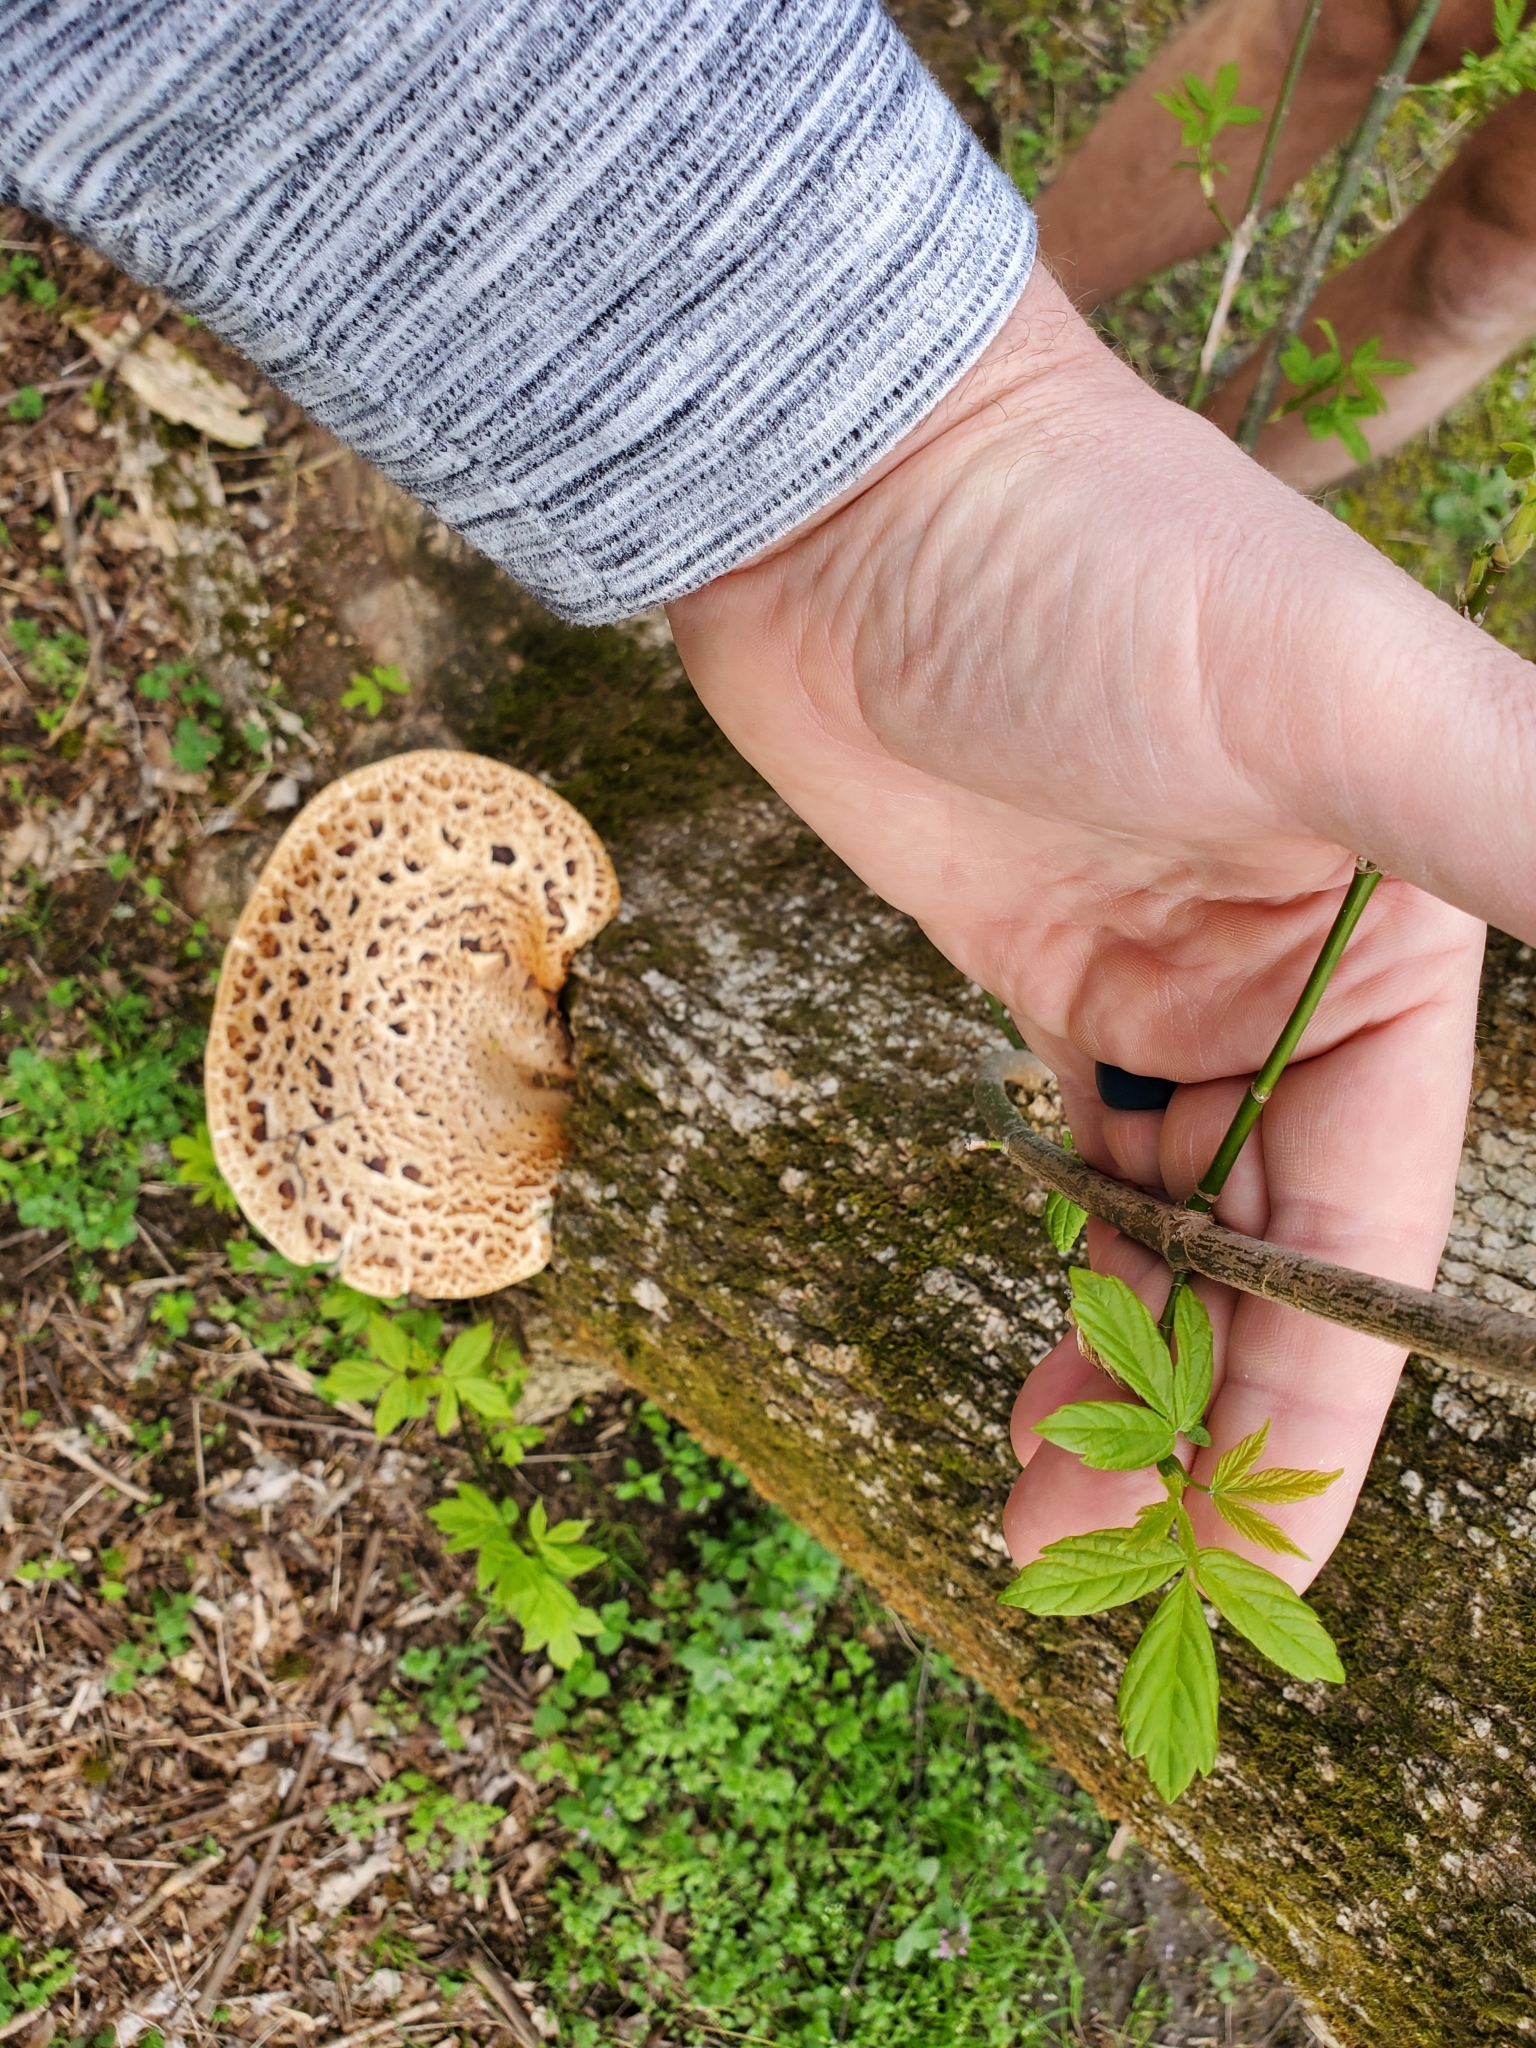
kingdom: Fungi
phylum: Basidiomycota
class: Agaricomycetes
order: Polyporales
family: Polyporaceae
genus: Cerioporus
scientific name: Cerioporus squamosus
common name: Dryad's saddle
